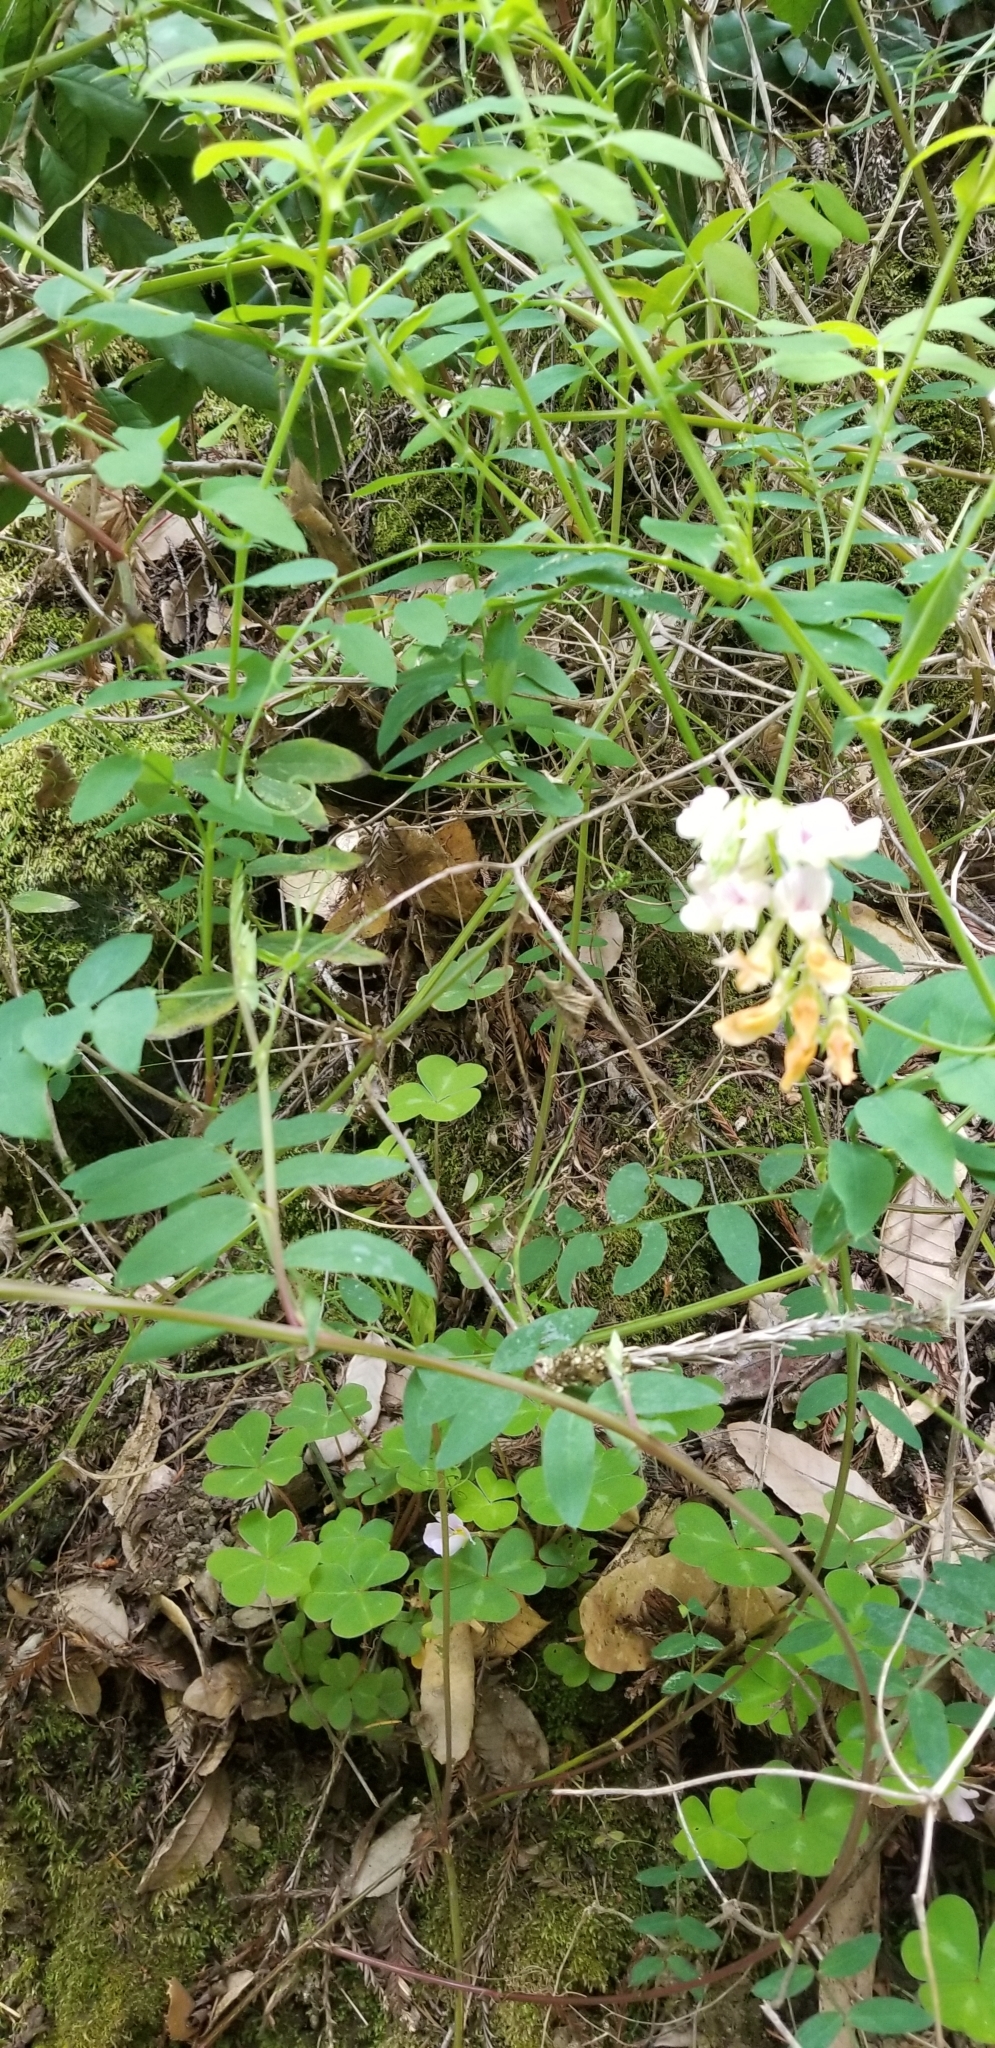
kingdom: Plantae
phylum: Tracheophyta
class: Magnoliopsida
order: Fabales
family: Fabaceae
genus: Lathyrus
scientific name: Lathyrus vestitus
